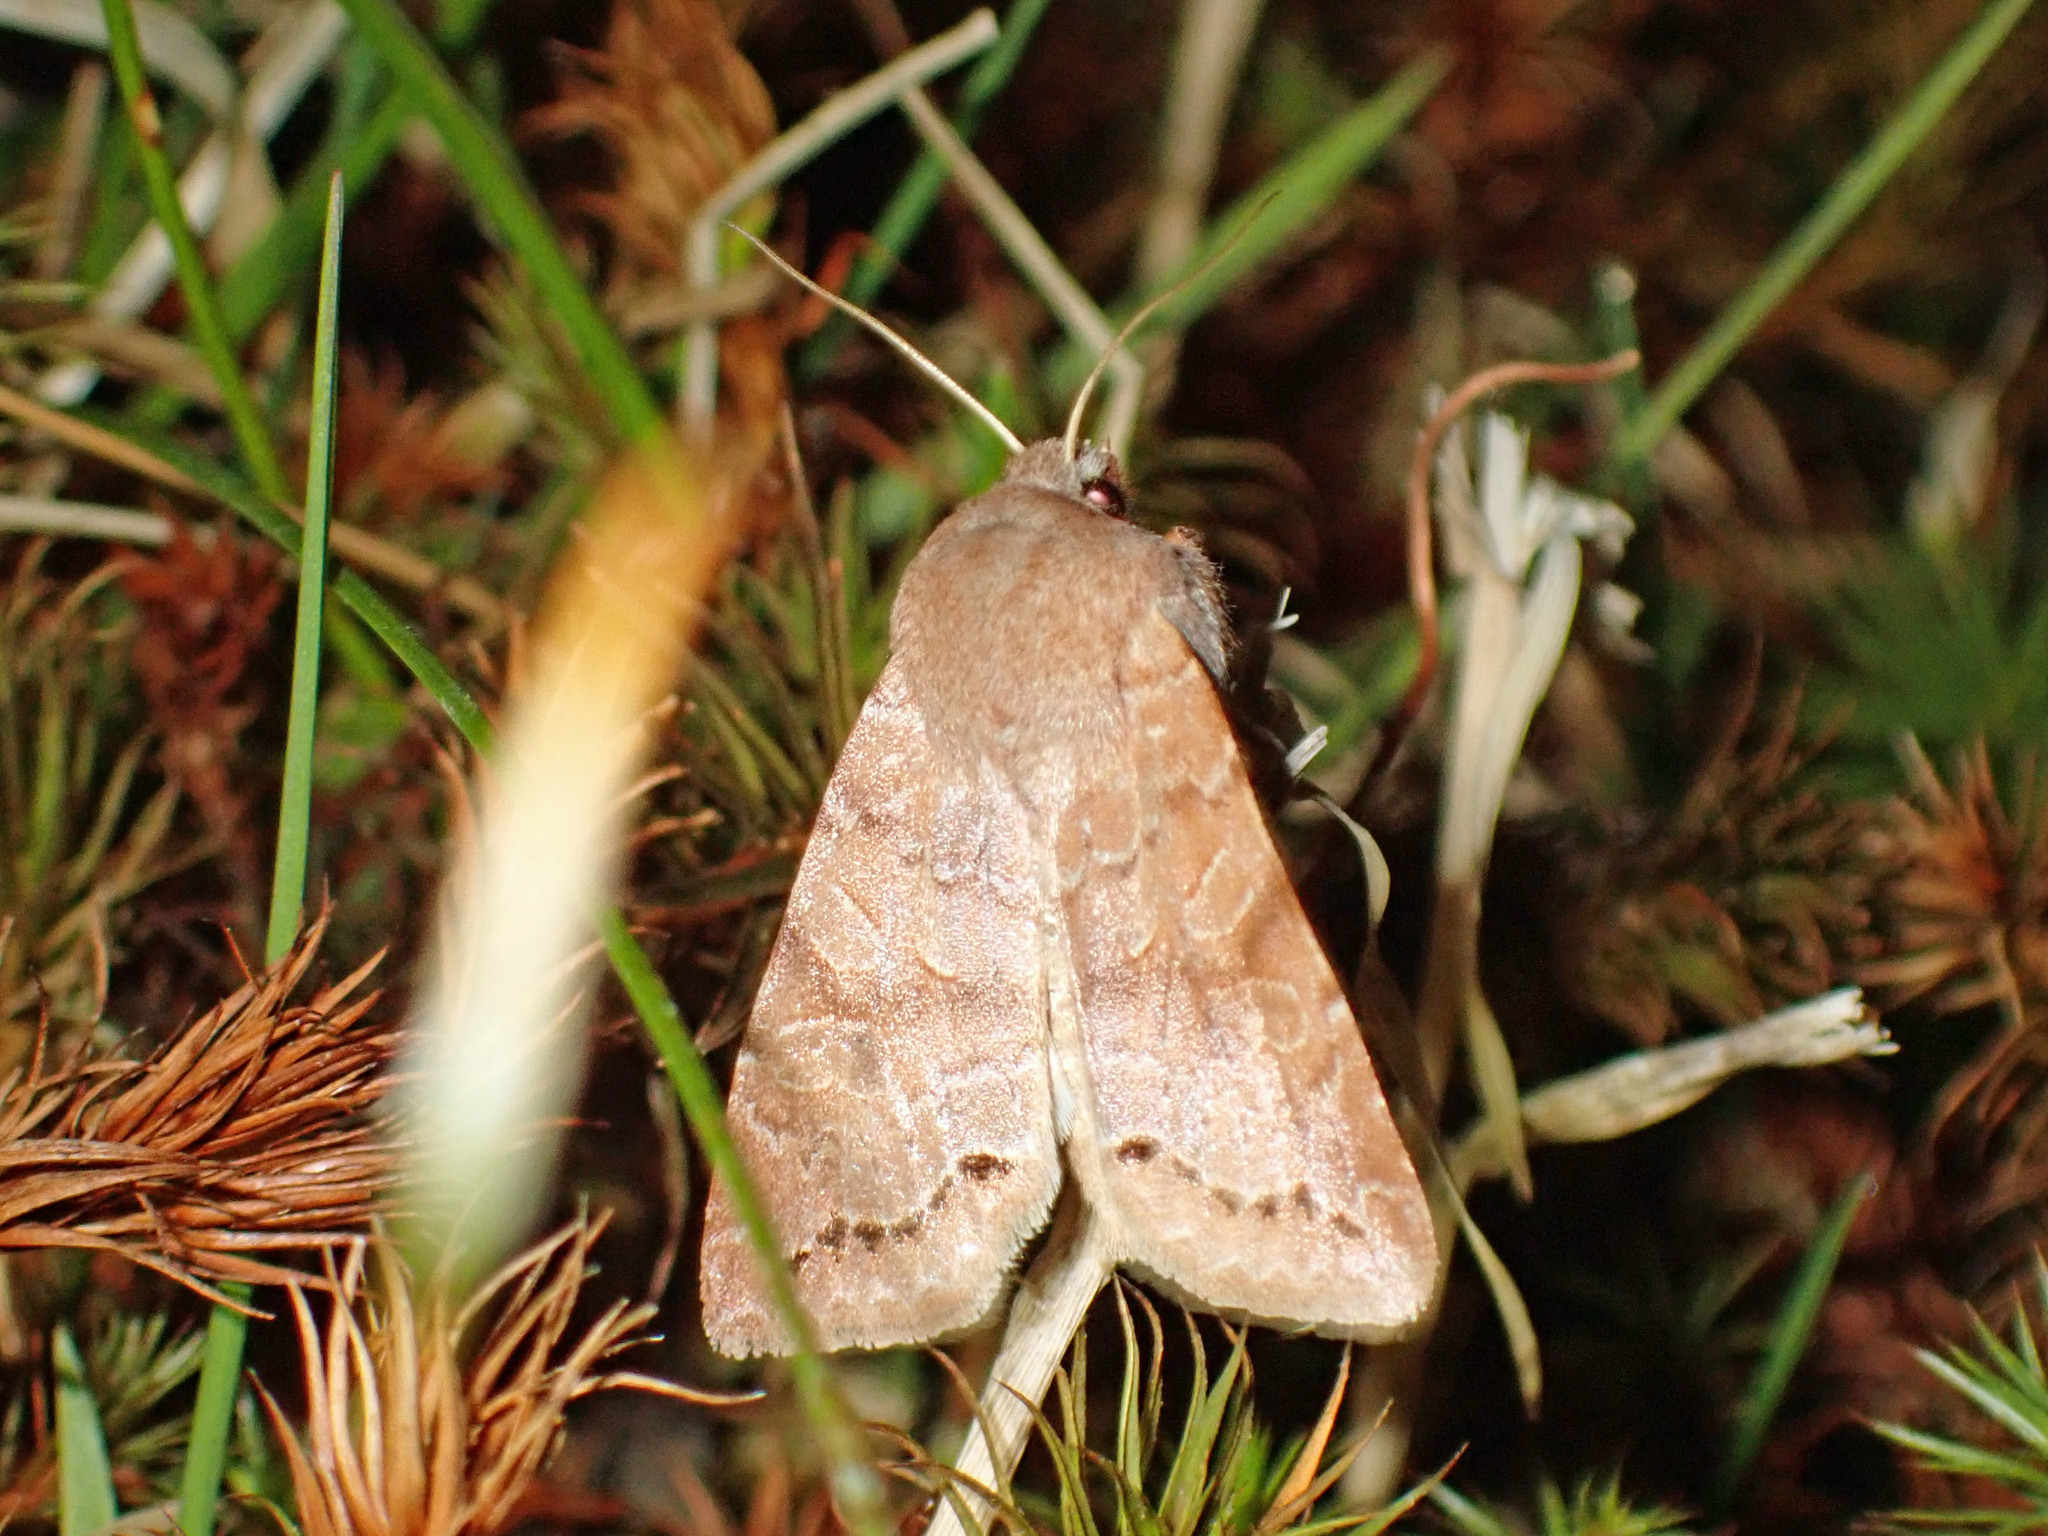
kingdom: Animalia
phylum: Arthropoda
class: Insecta
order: Lepidoptera
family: Noctuidae
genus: Orthosia
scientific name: Orthosia revicta
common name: Rusty whitesided caterpillar
